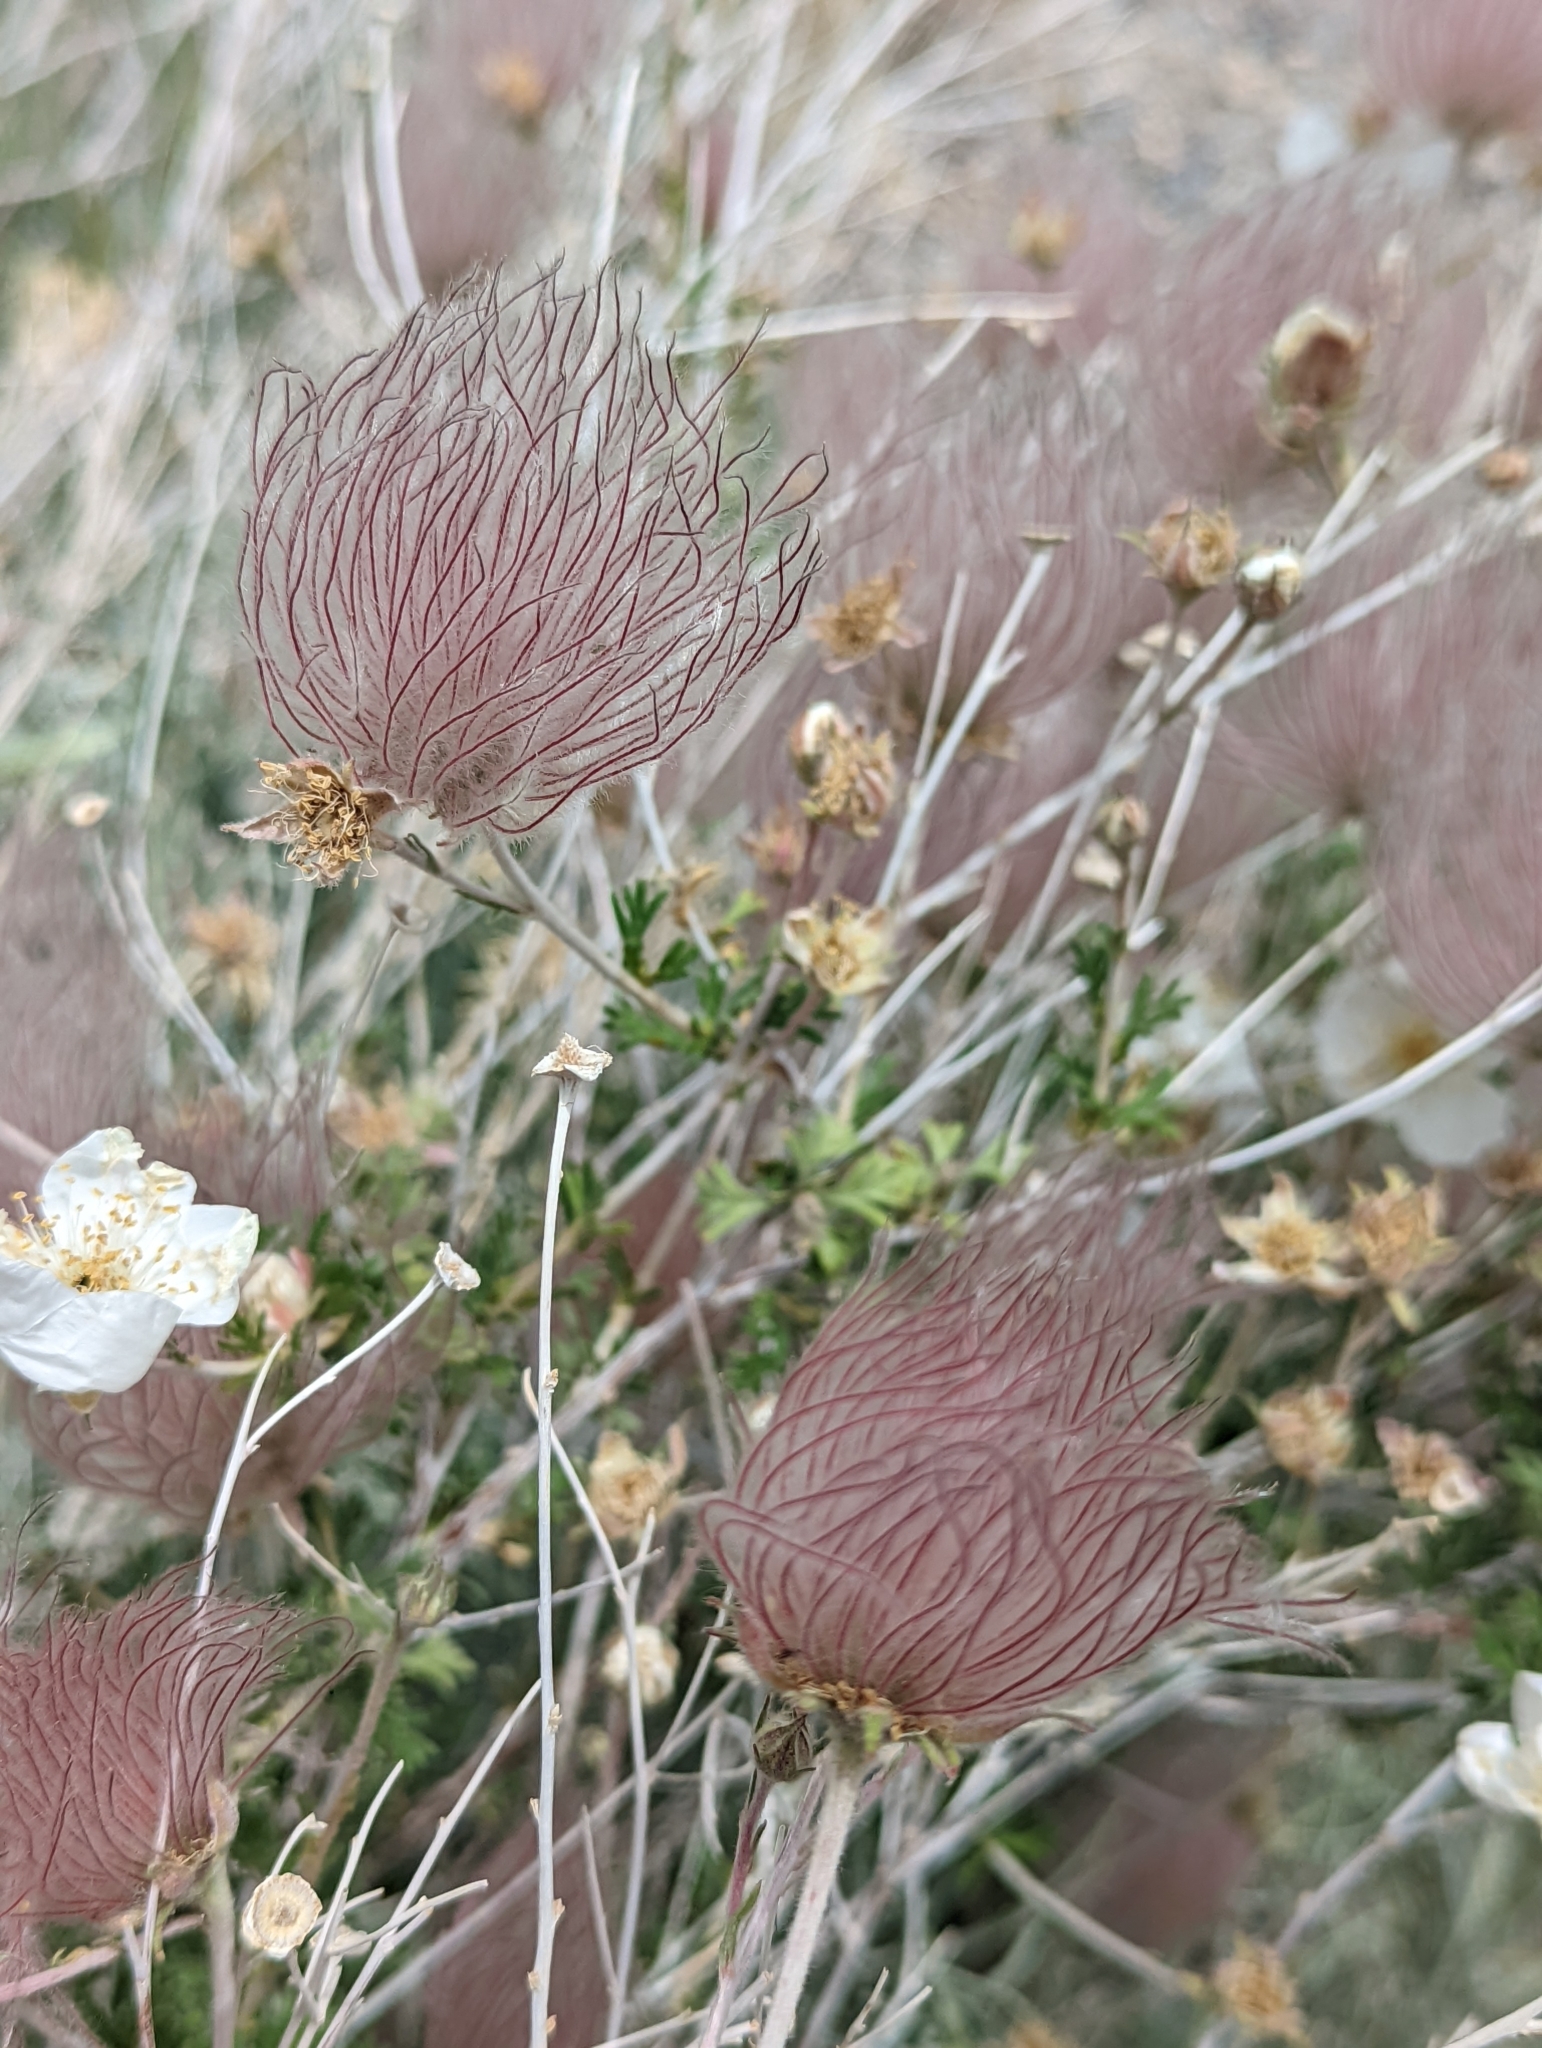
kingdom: Plantae
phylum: Tracheophyta
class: Magnoliopsida
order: Rosales
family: Rosaceae
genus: Fallugia
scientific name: Fallugia paradoxa
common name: Apache-plume
